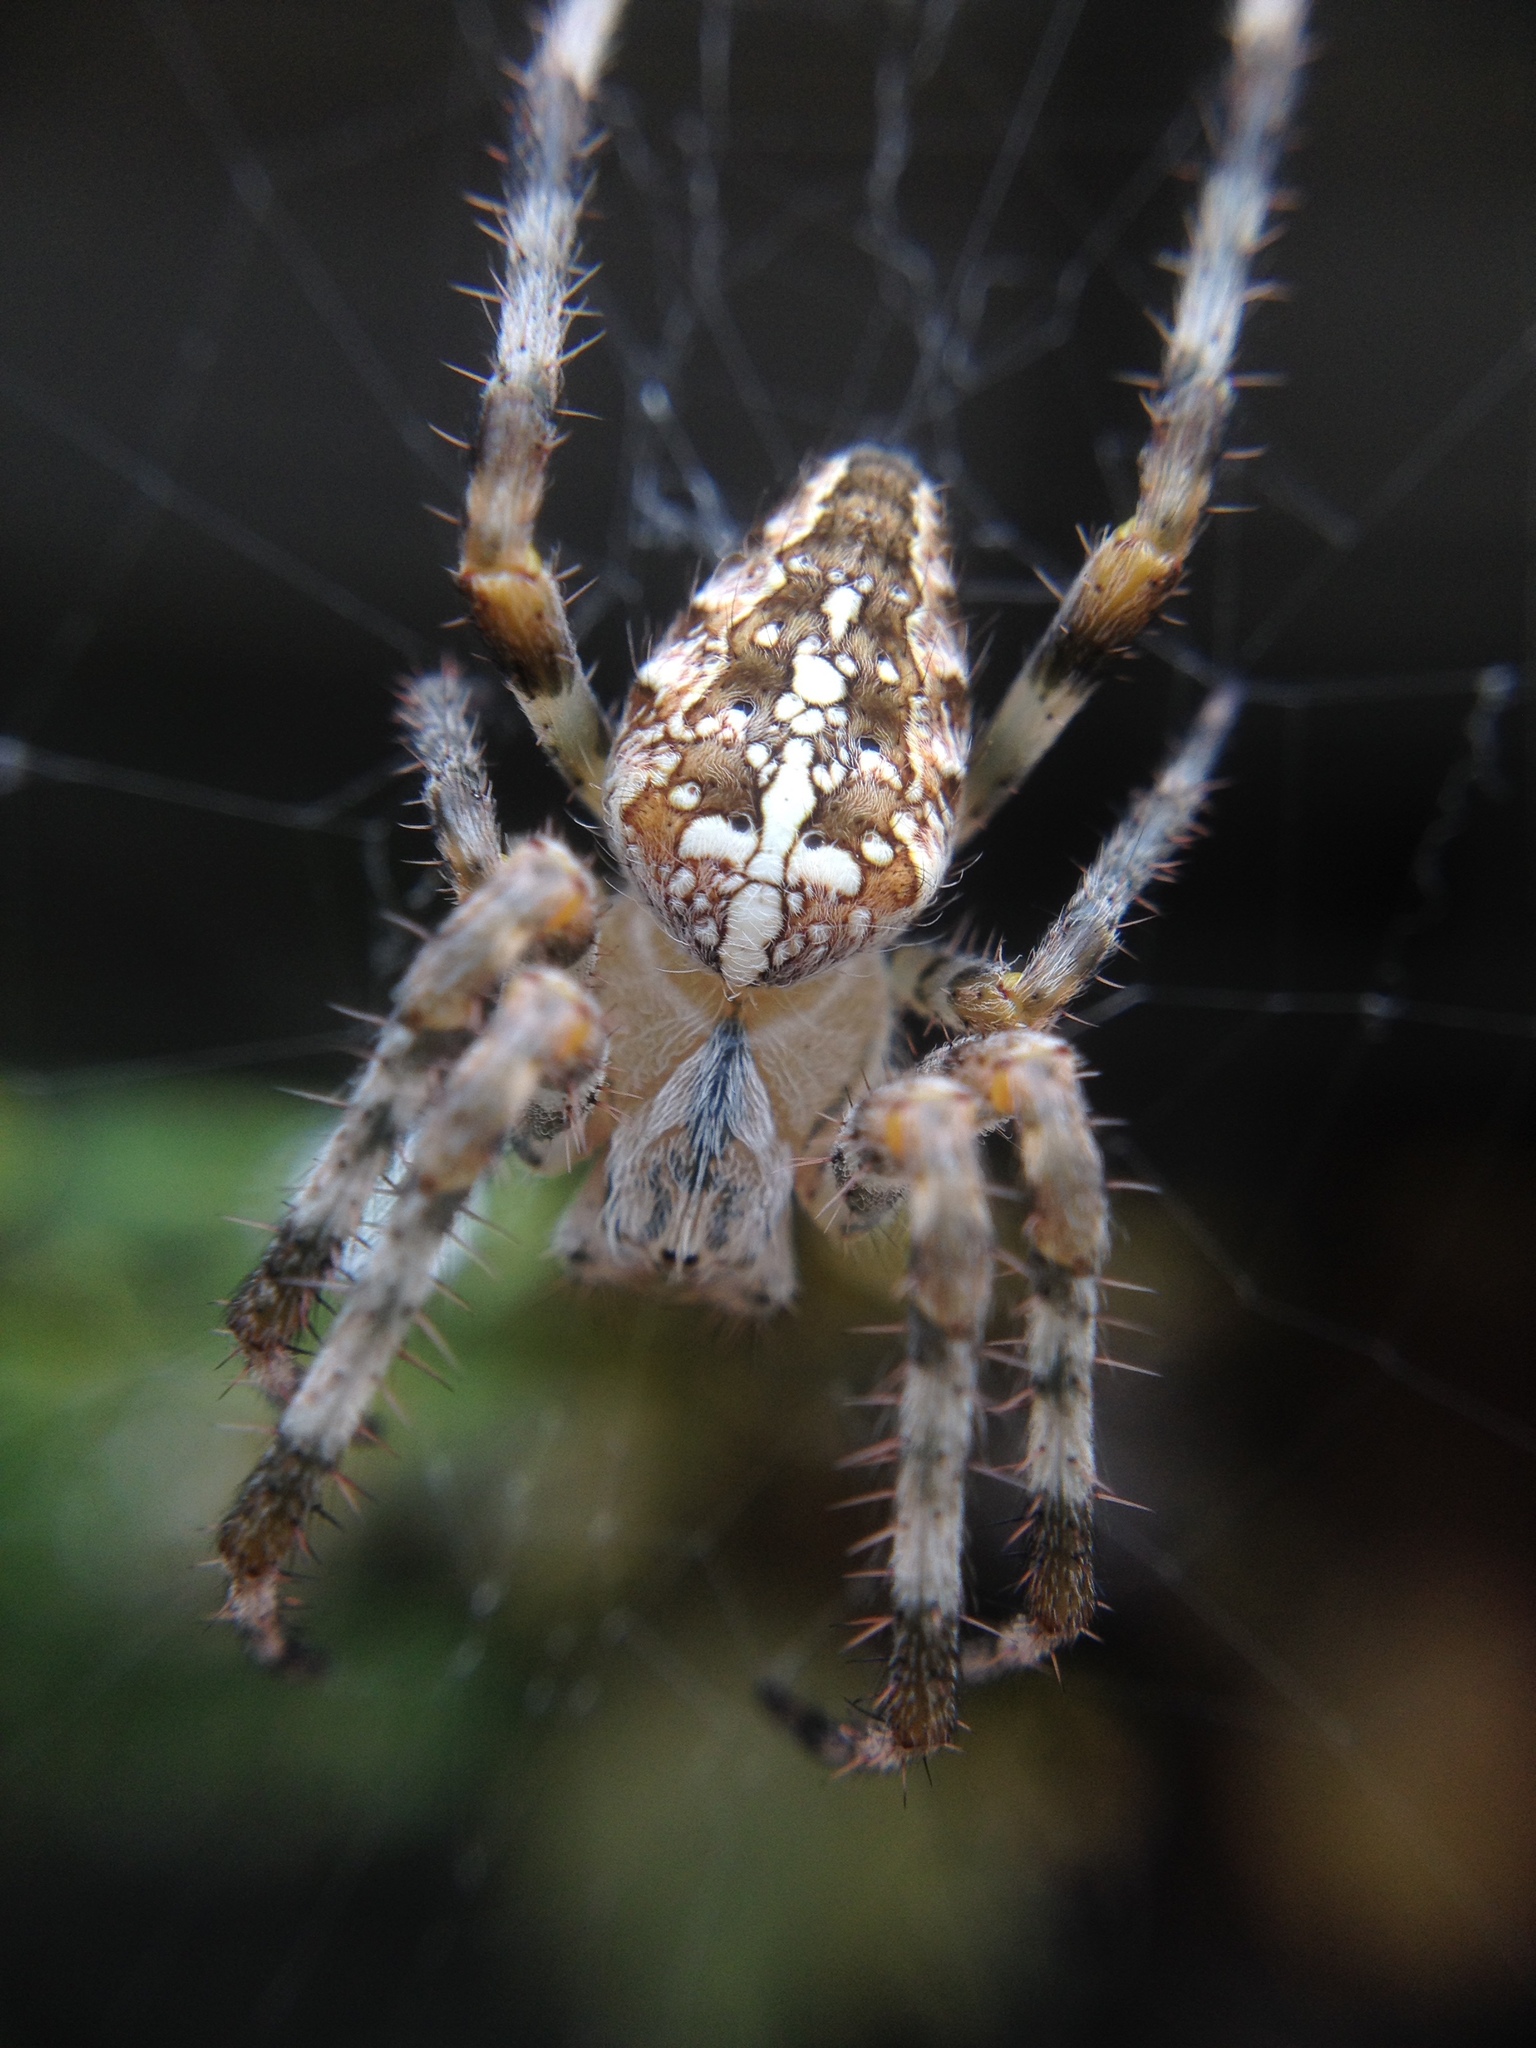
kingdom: Animalia
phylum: Arthropoda
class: Arachnida
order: Araneae
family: Araneidae
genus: Araneus
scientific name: Araneus diadematus
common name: Cross orbweaver
